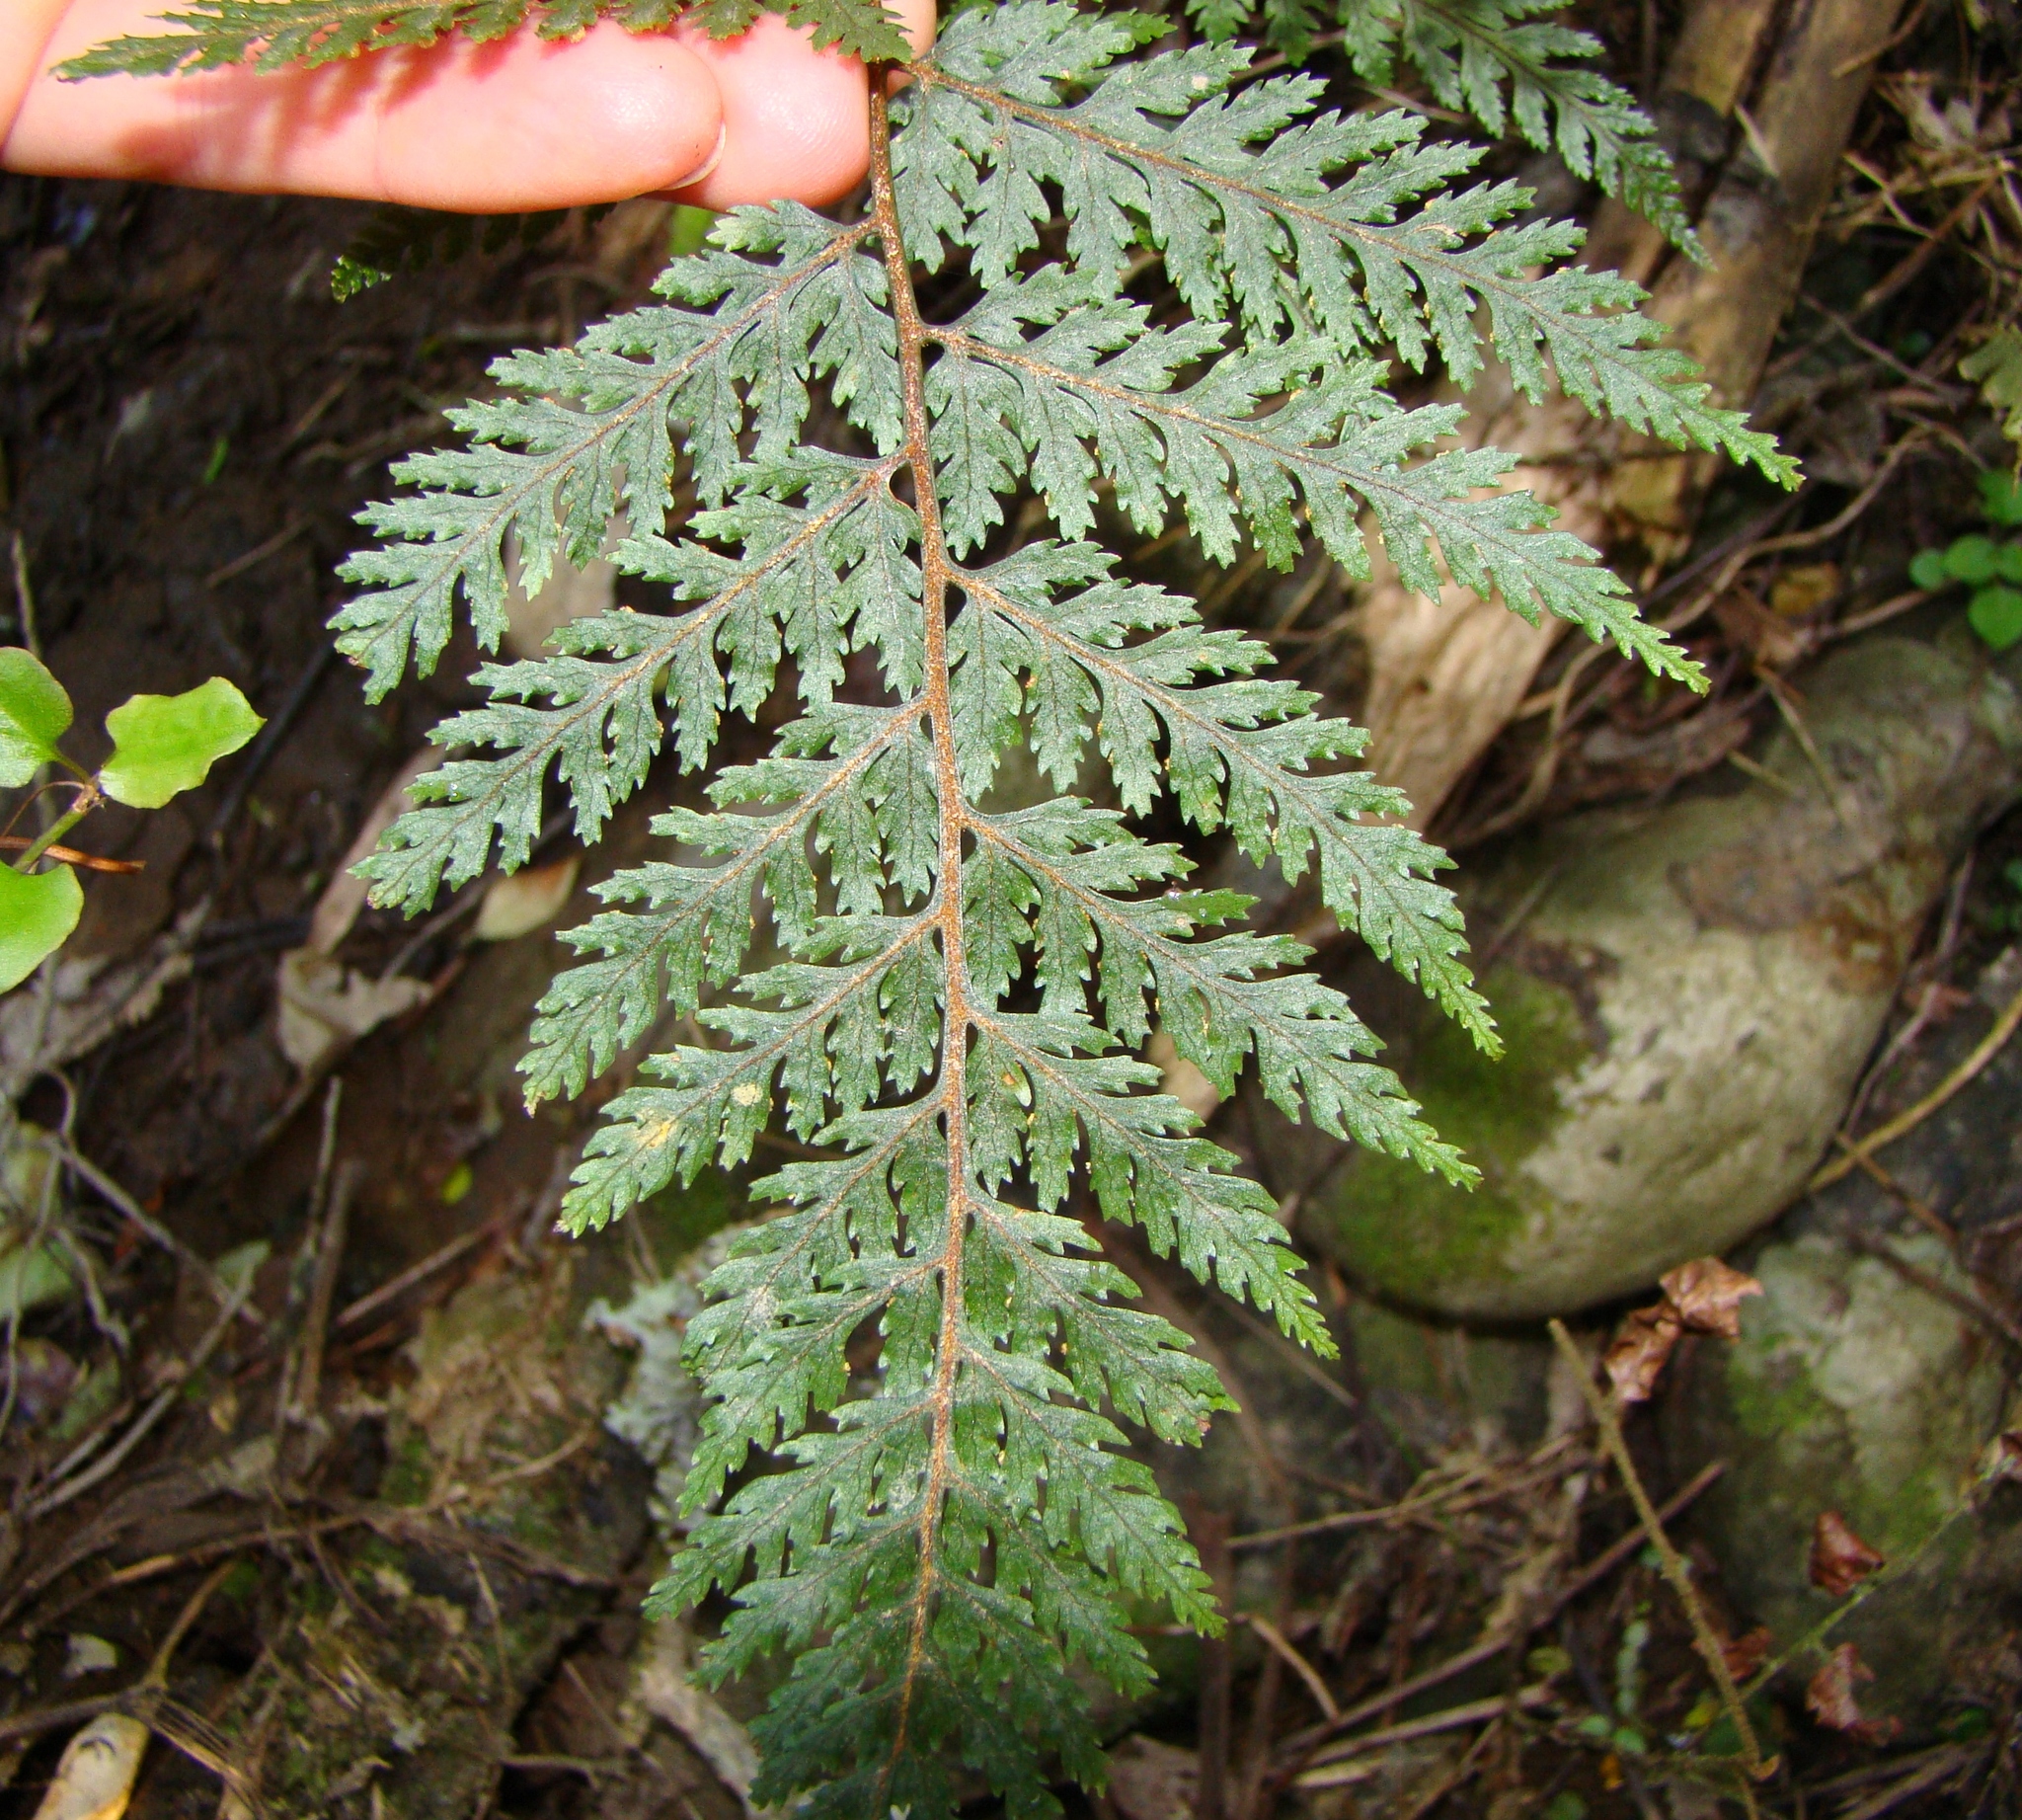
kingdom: Plantae
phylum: Tracheophyta
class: Polypodiopsida
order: Polypodiales
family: Dryopteridaceae
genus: Parapolystichum
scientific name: Parapolystichum glabellum
